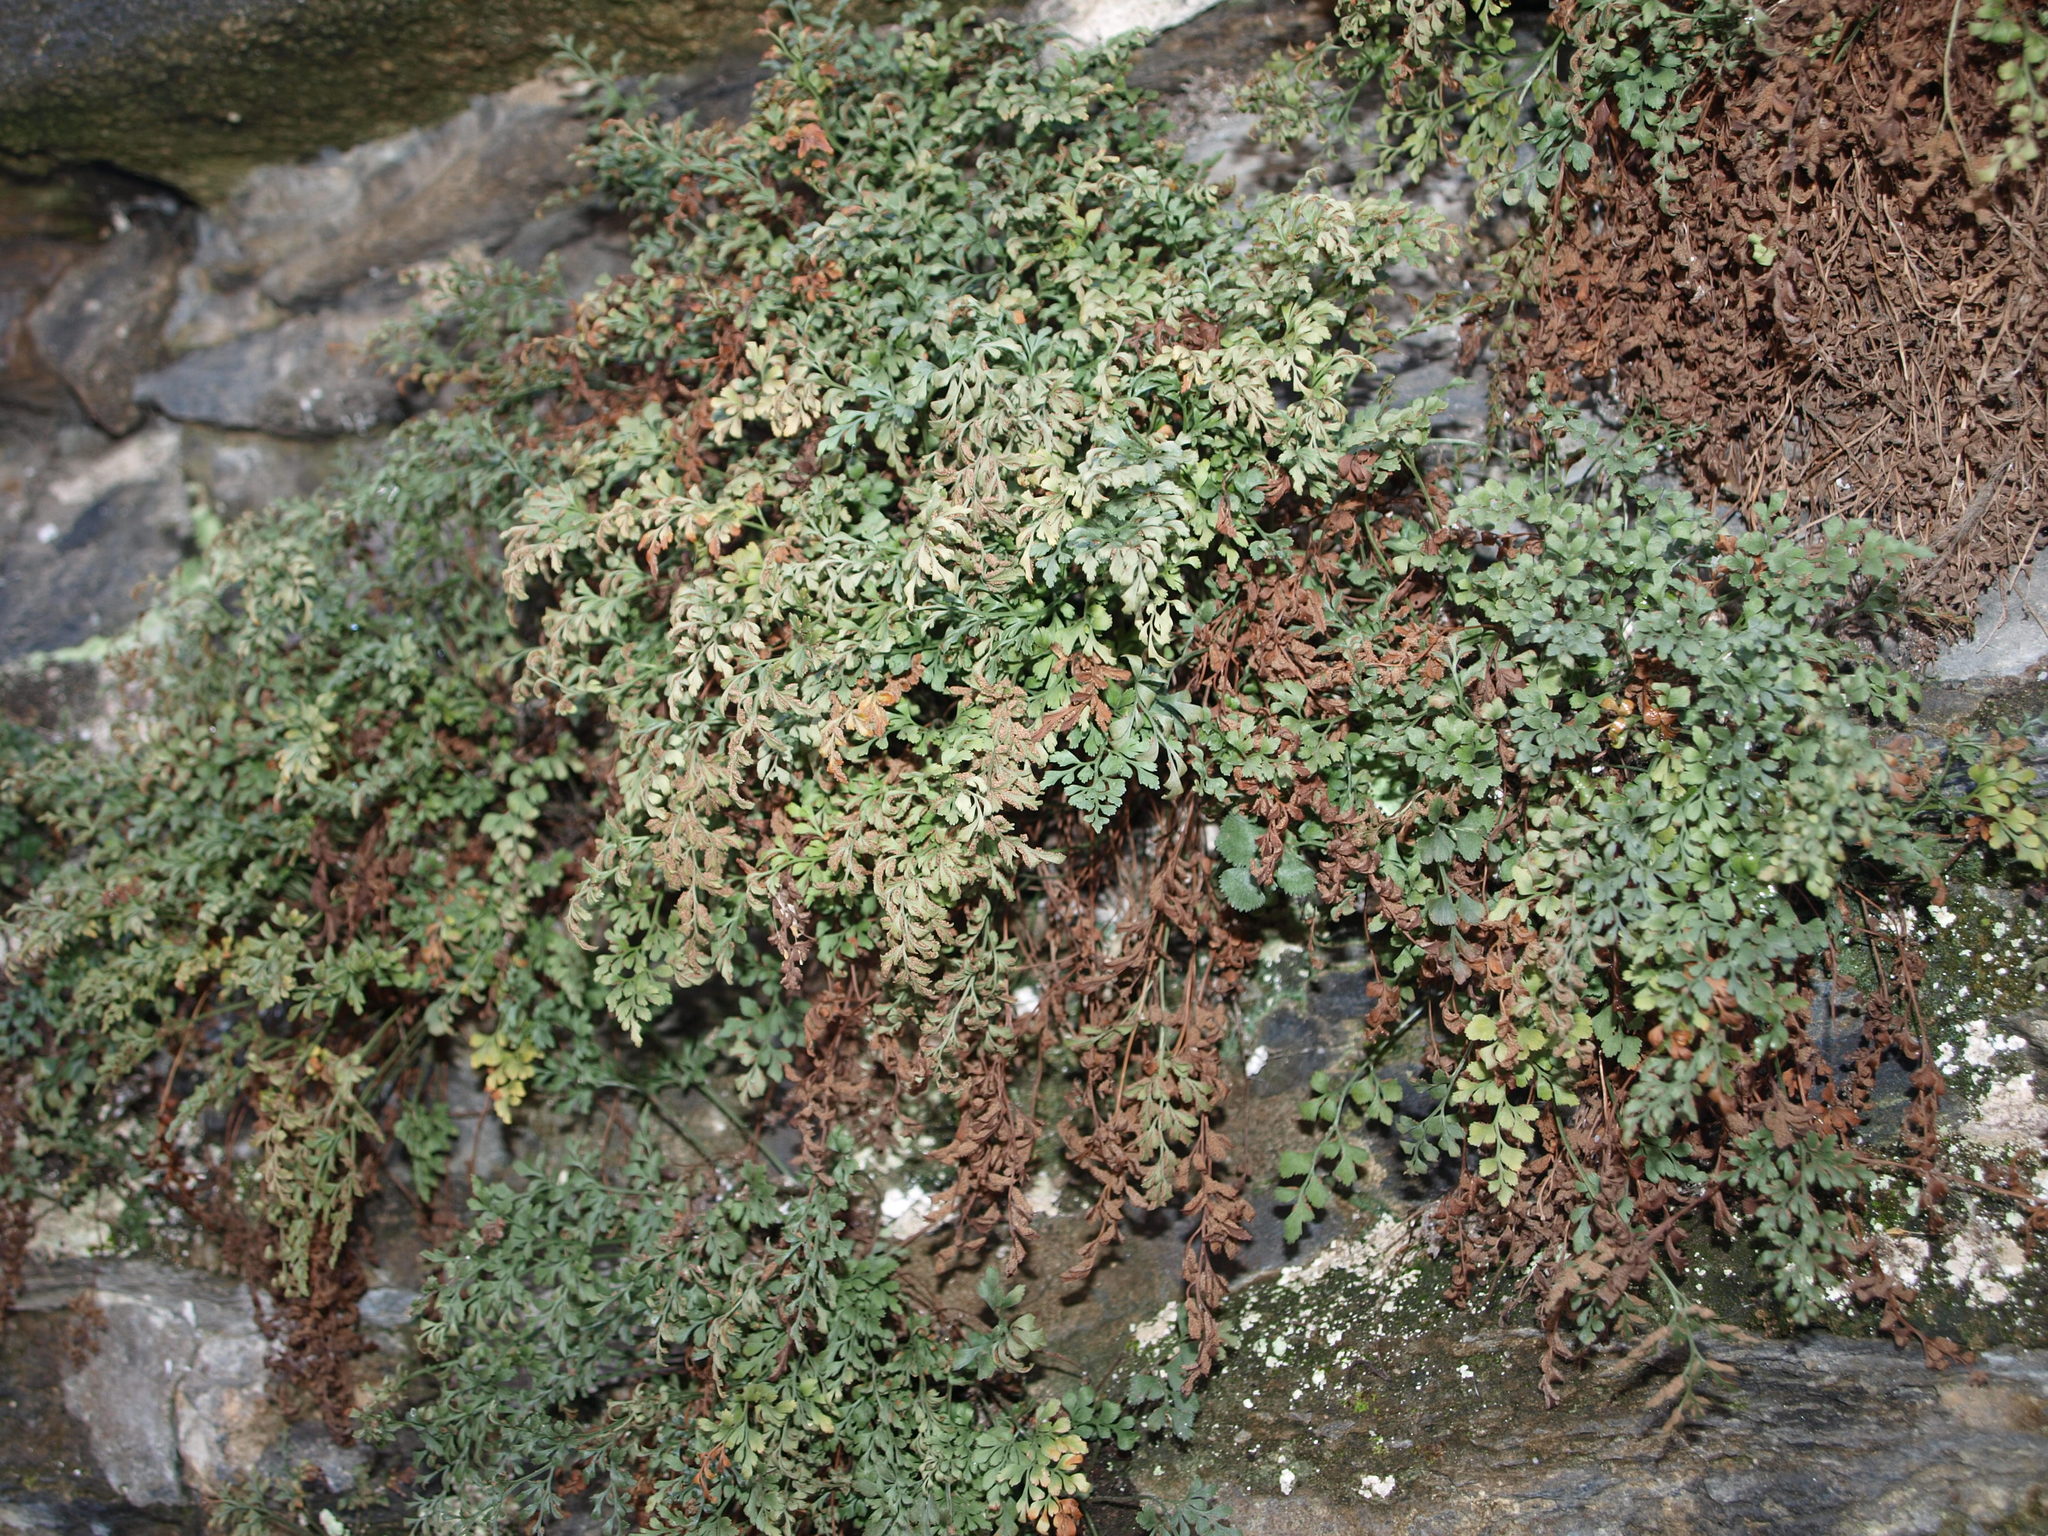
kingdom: Plantae
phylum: Tracheophyta
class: Polypodiopsida
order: Polypodiales
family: Aspleniaceae
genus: Asplenium
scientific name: Asplenium ruta-muraria
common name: Wall-rue
